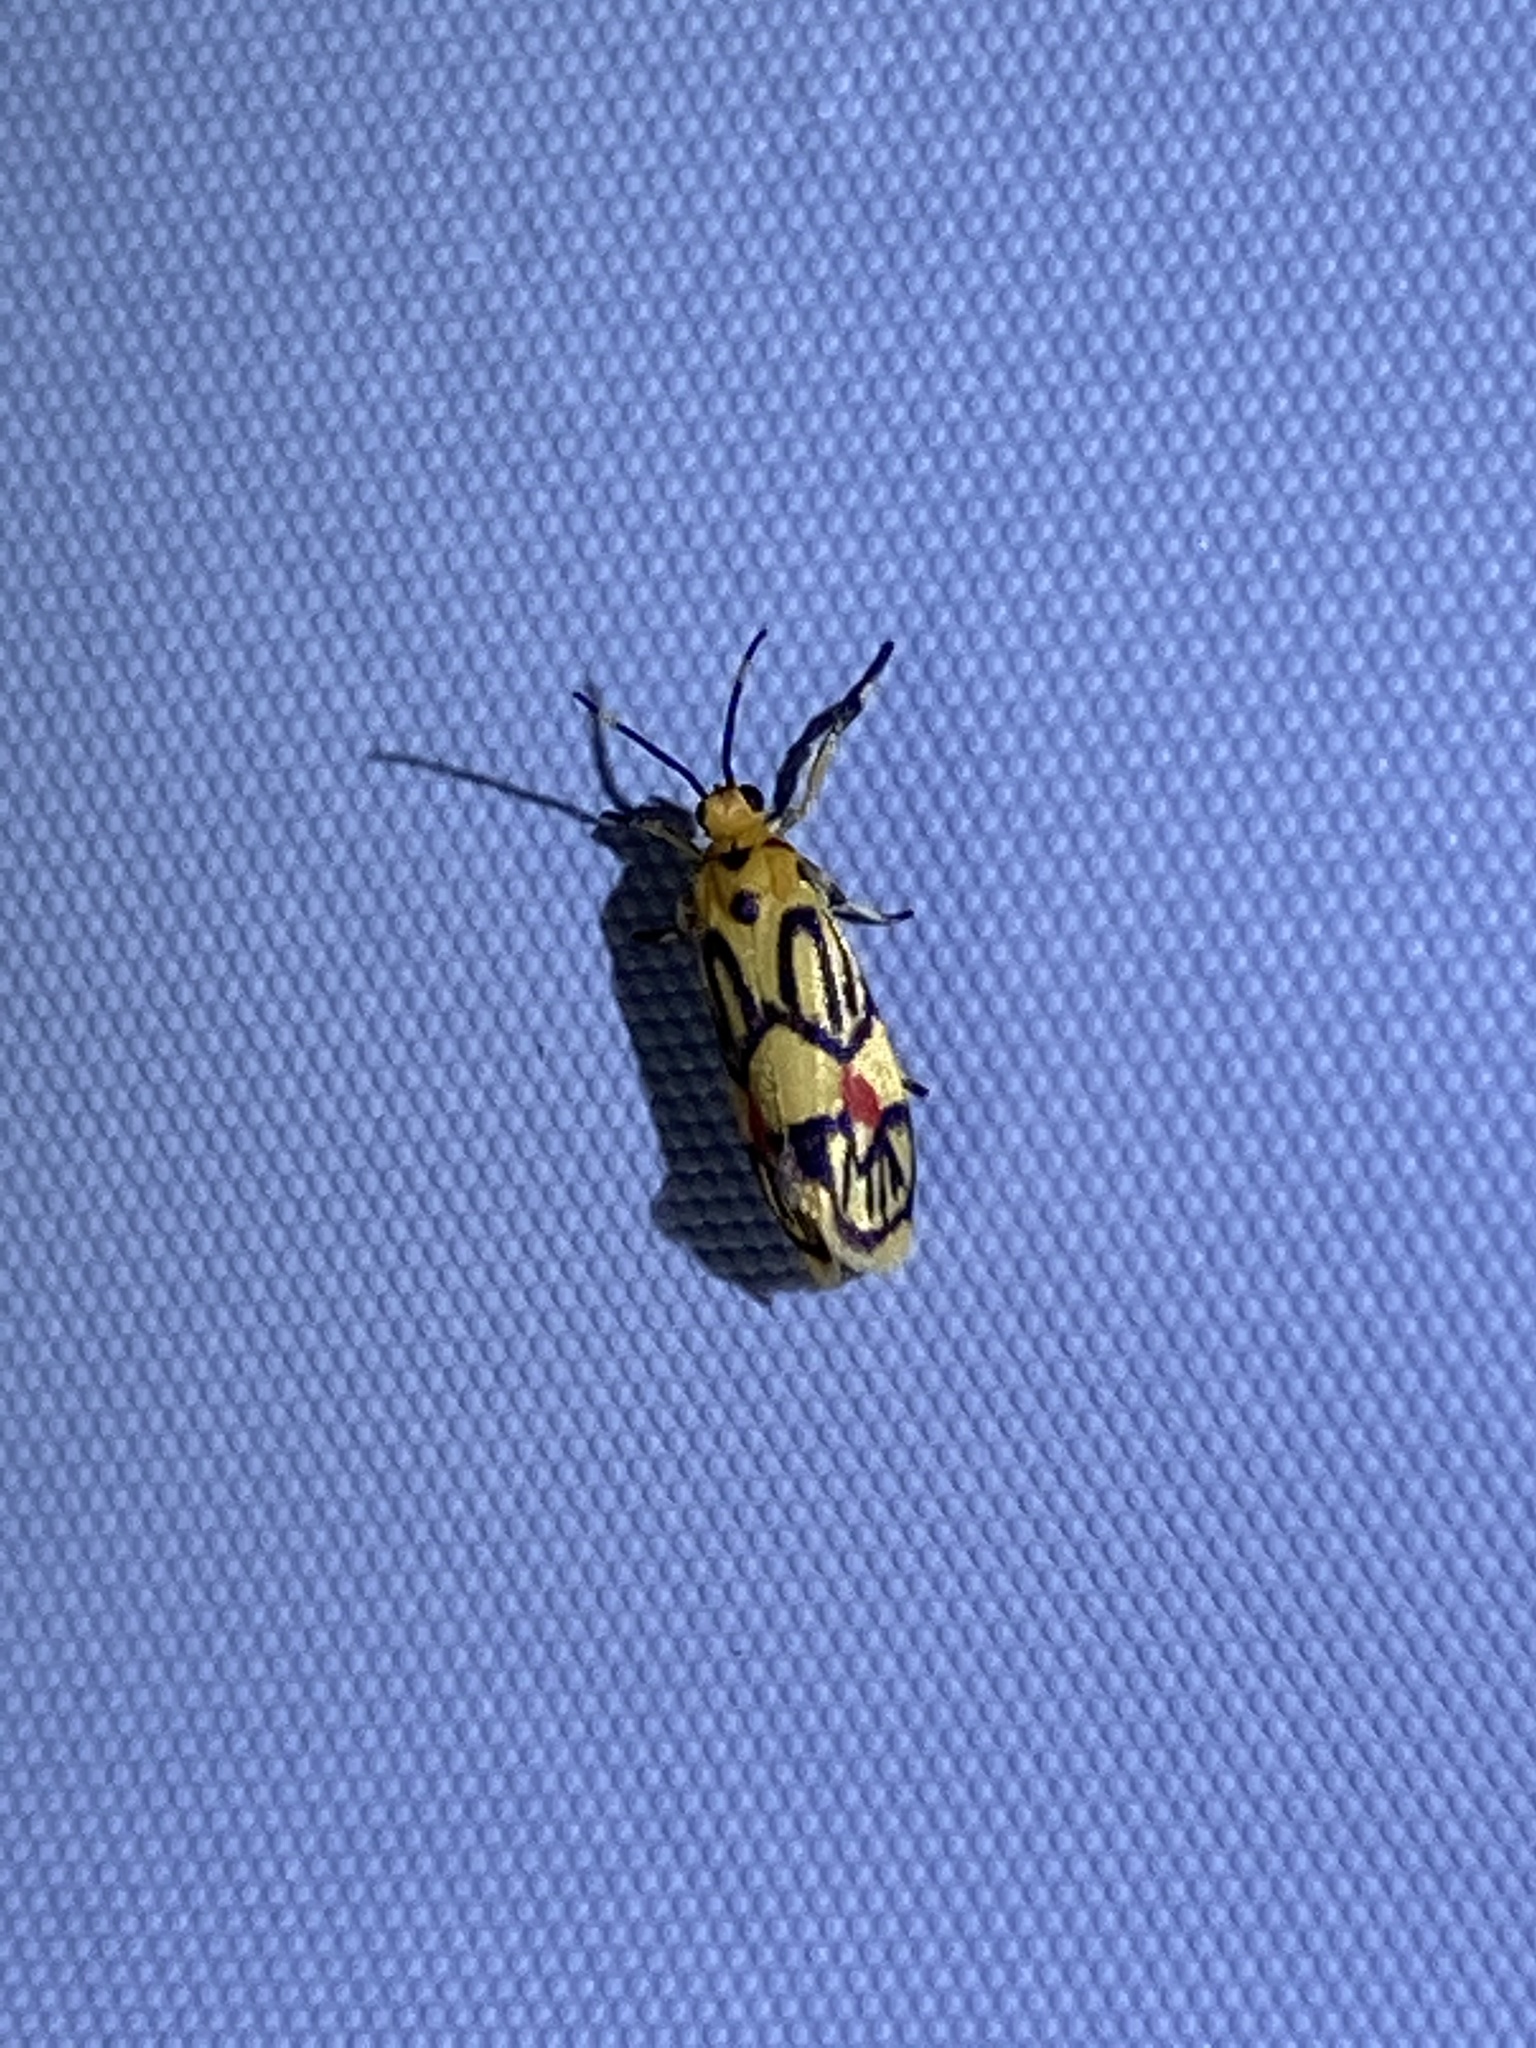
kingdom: Animalia
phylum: Arthropoda
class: Insecta
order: Lepidoptera
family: Erebidae
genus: Prepiella
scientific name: Prepiella aurea
